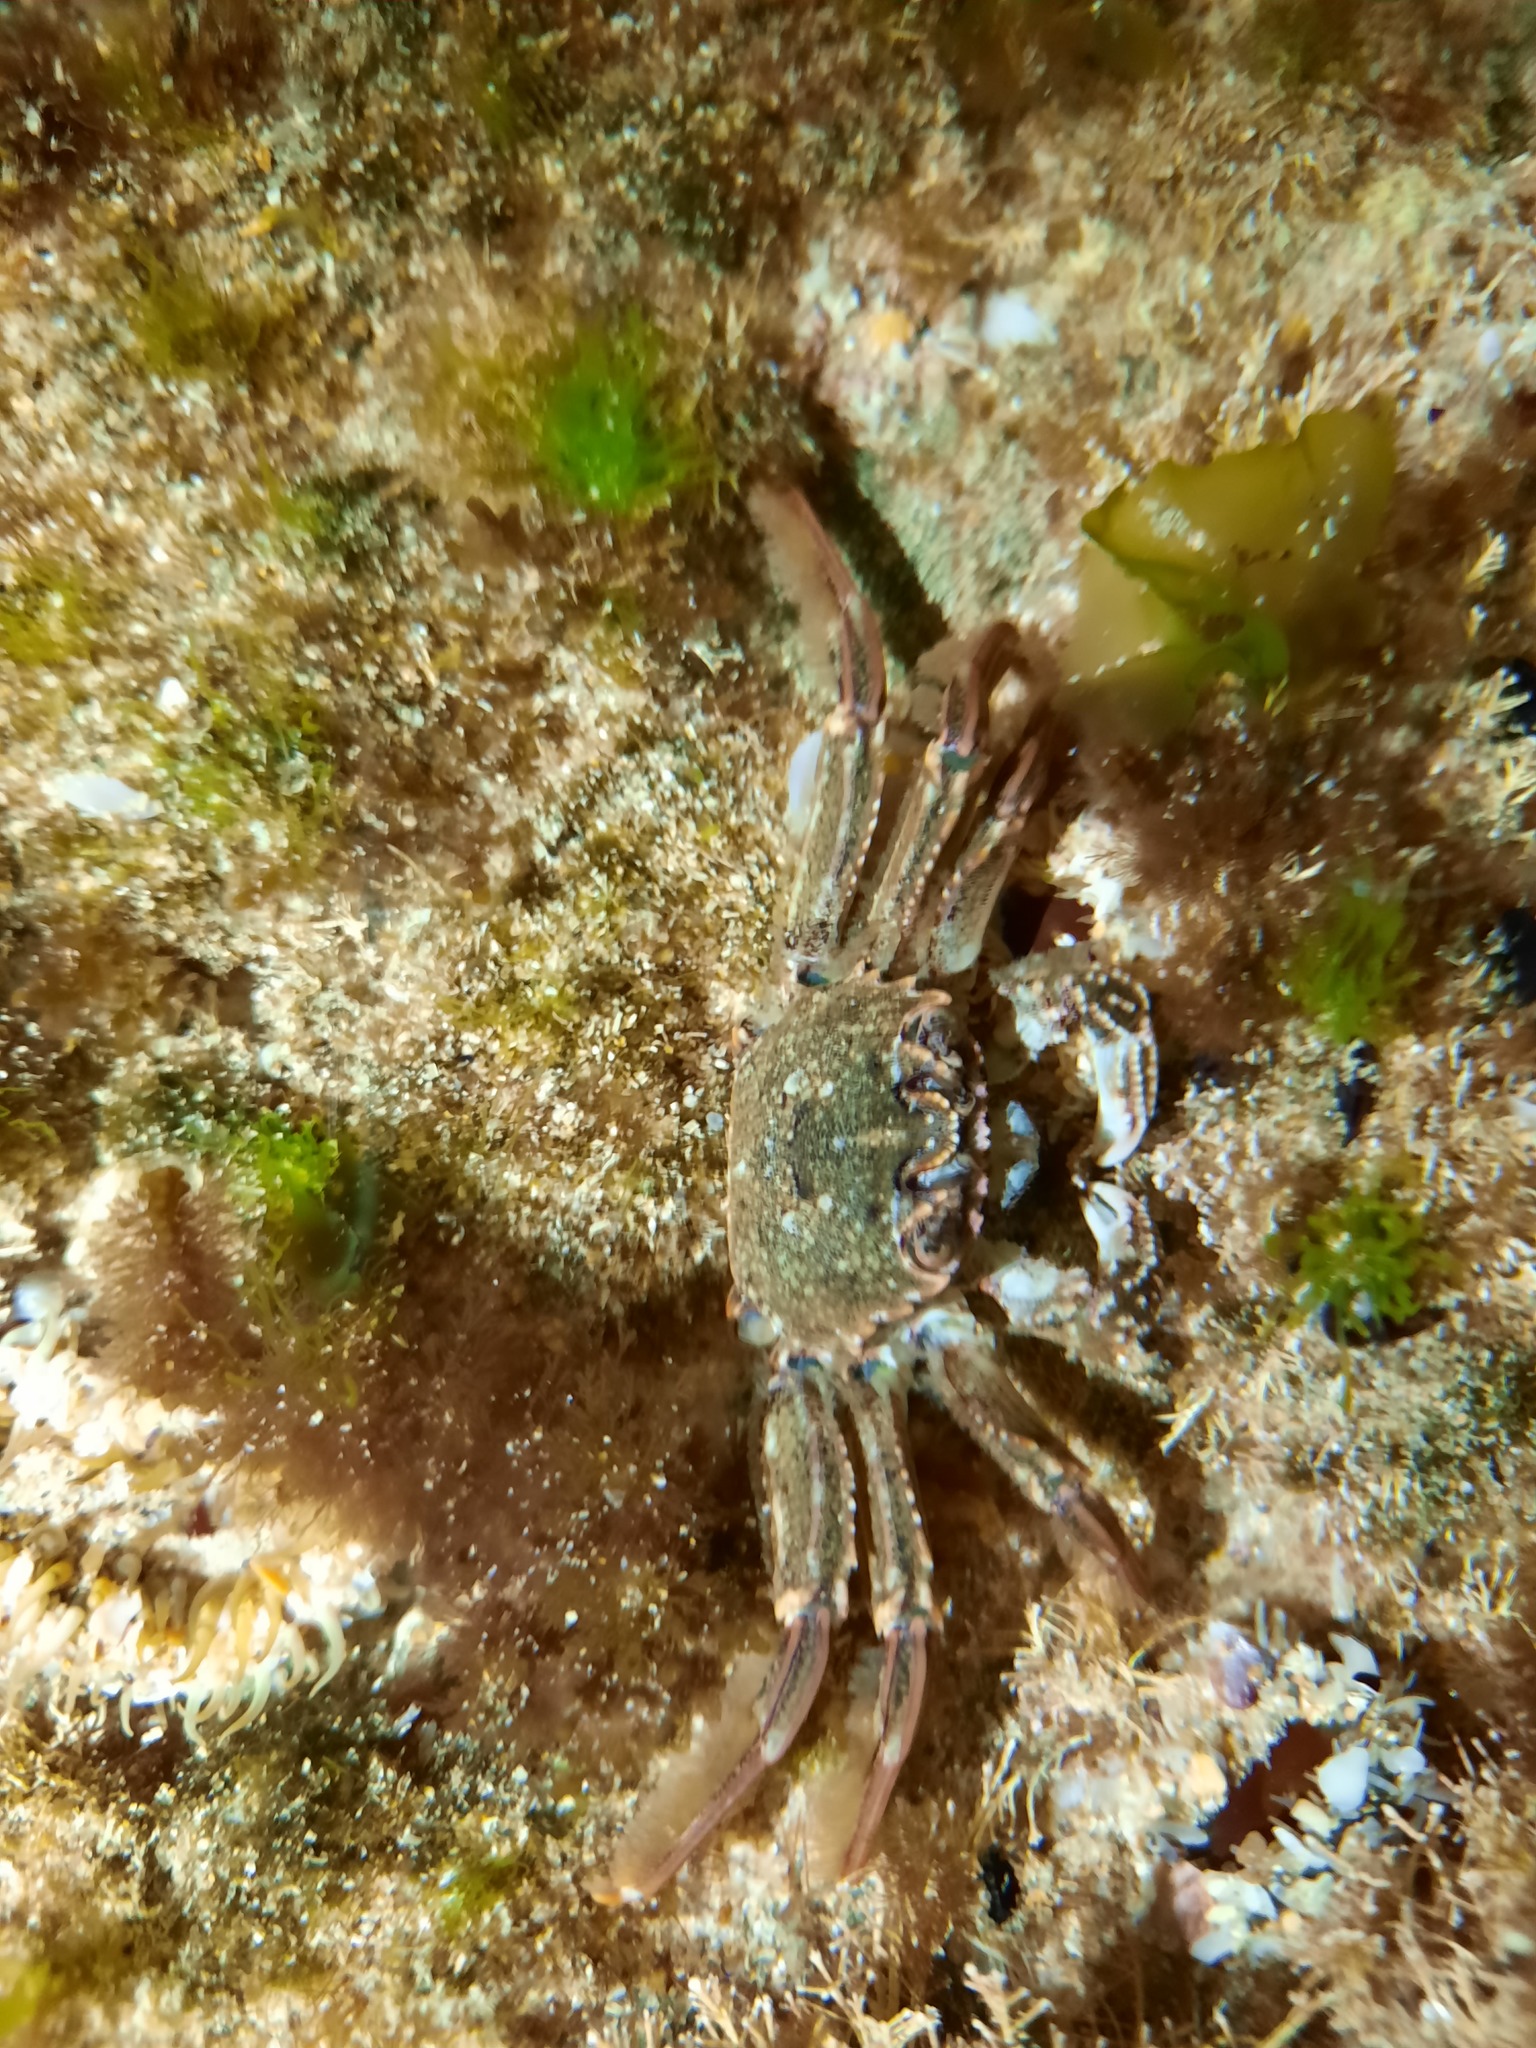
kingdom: Animalia
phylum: Arthropoda
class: Malacostraca
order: Decapoda
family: Plagusiidae
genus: Guinusia
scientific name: Guinusia chabrus
